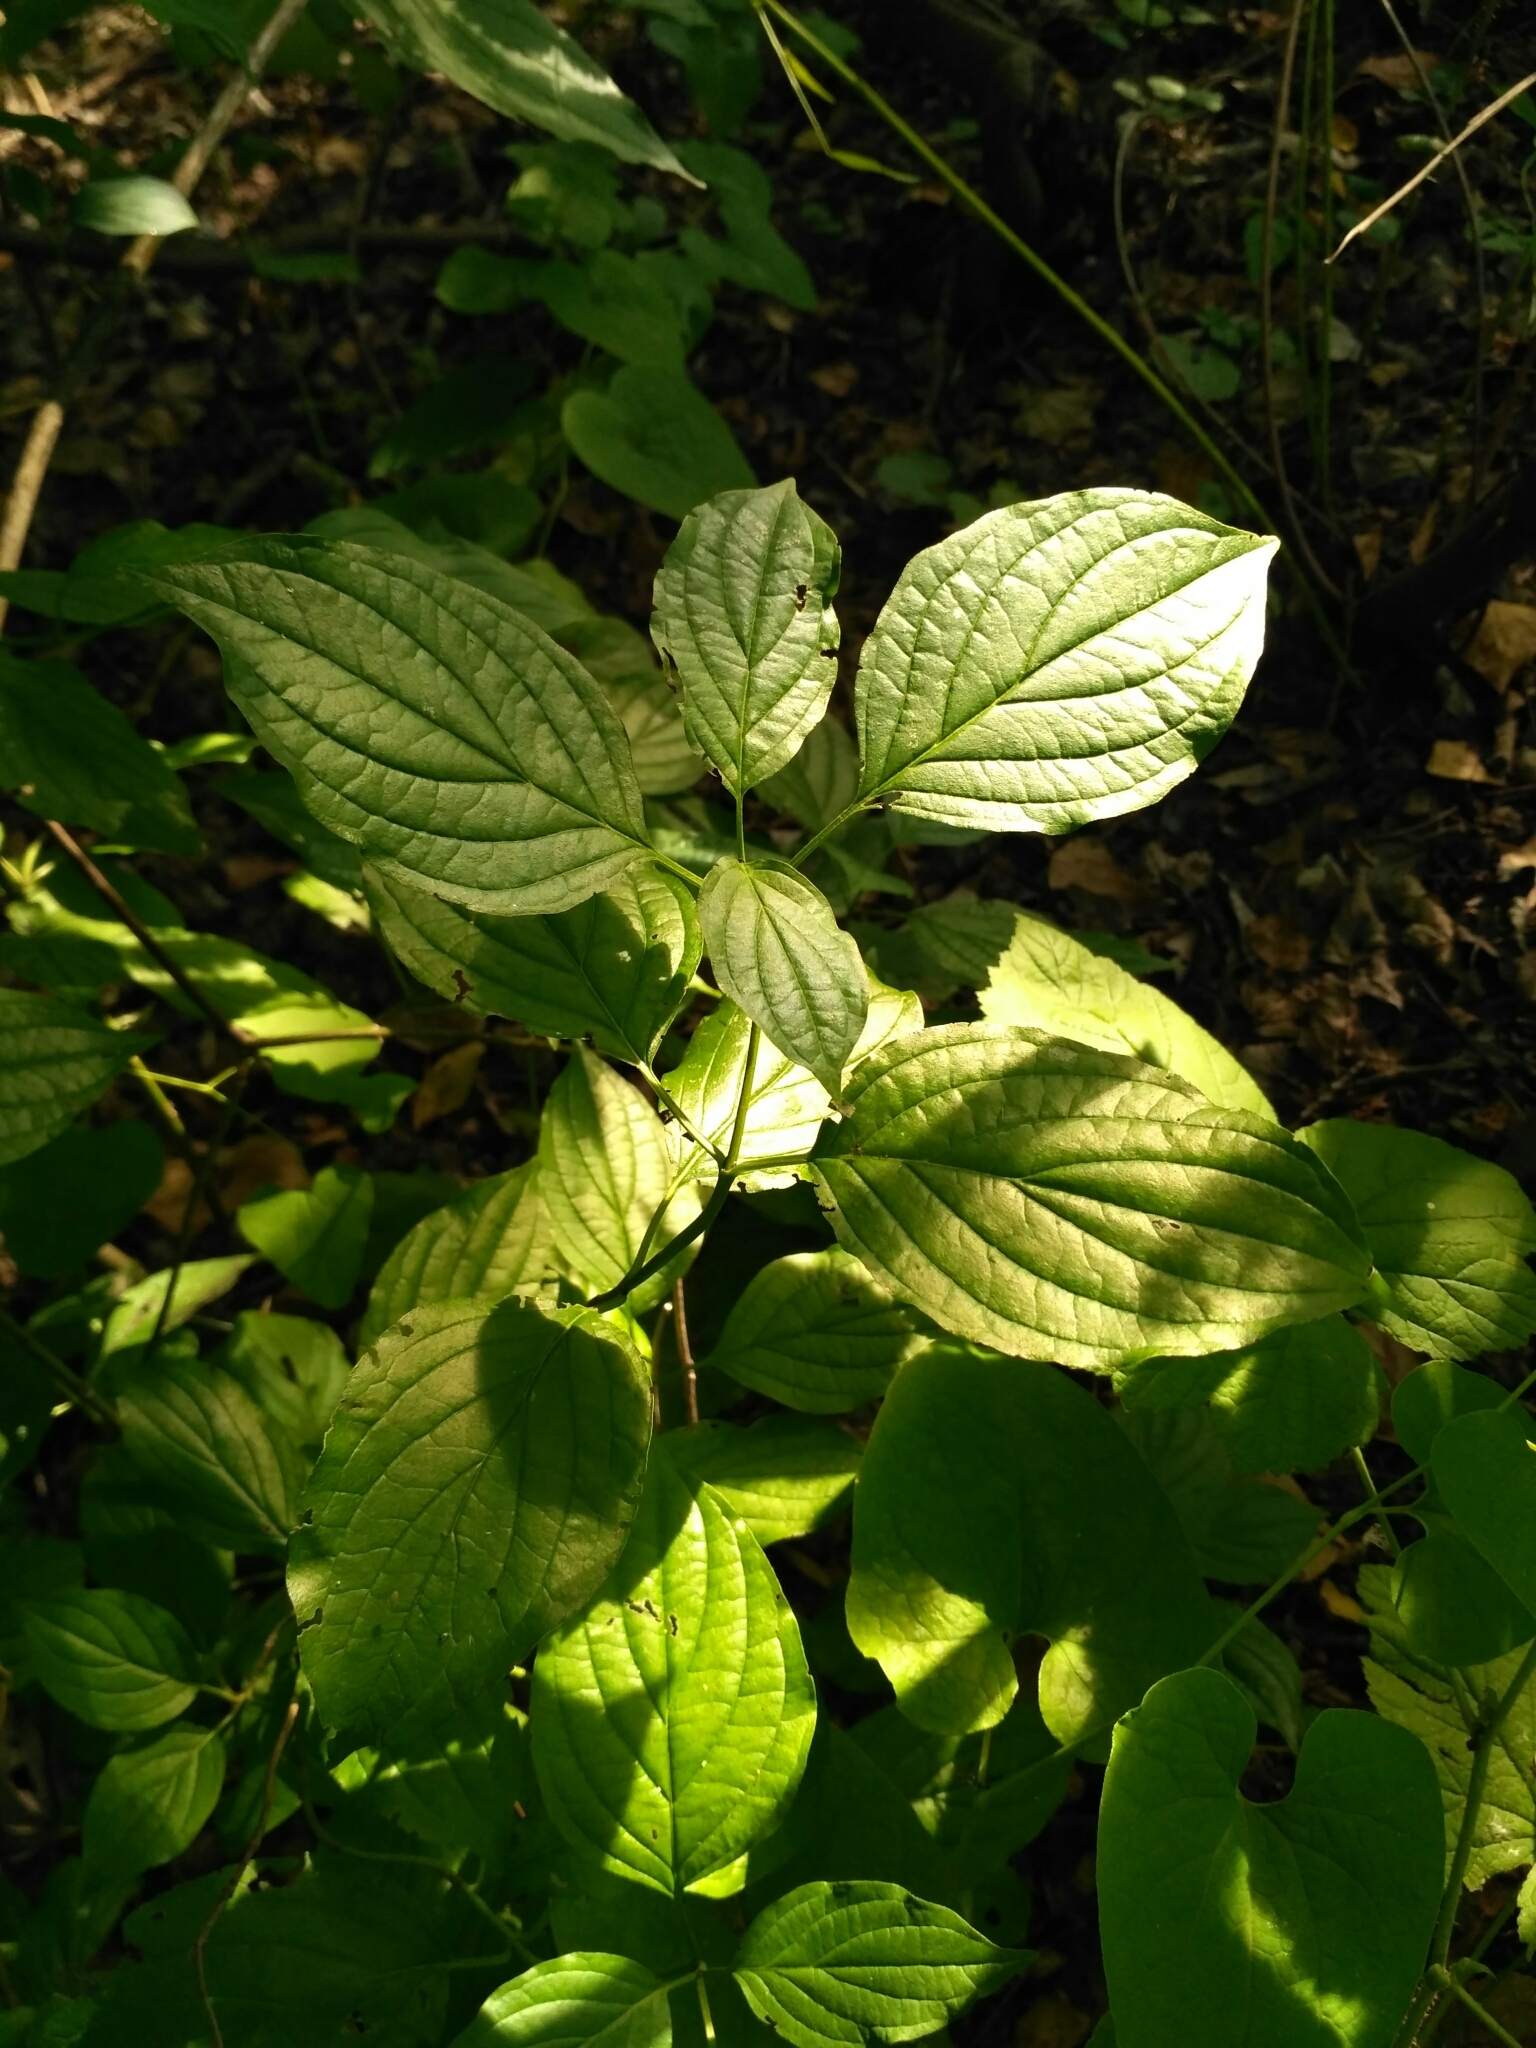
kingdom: Plantae
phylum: Tracheophyta
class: Magnoliopsida
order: Cornales
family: Cornaceae
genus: Cornus
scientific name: Cornus sanguinea
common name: Dogwood
